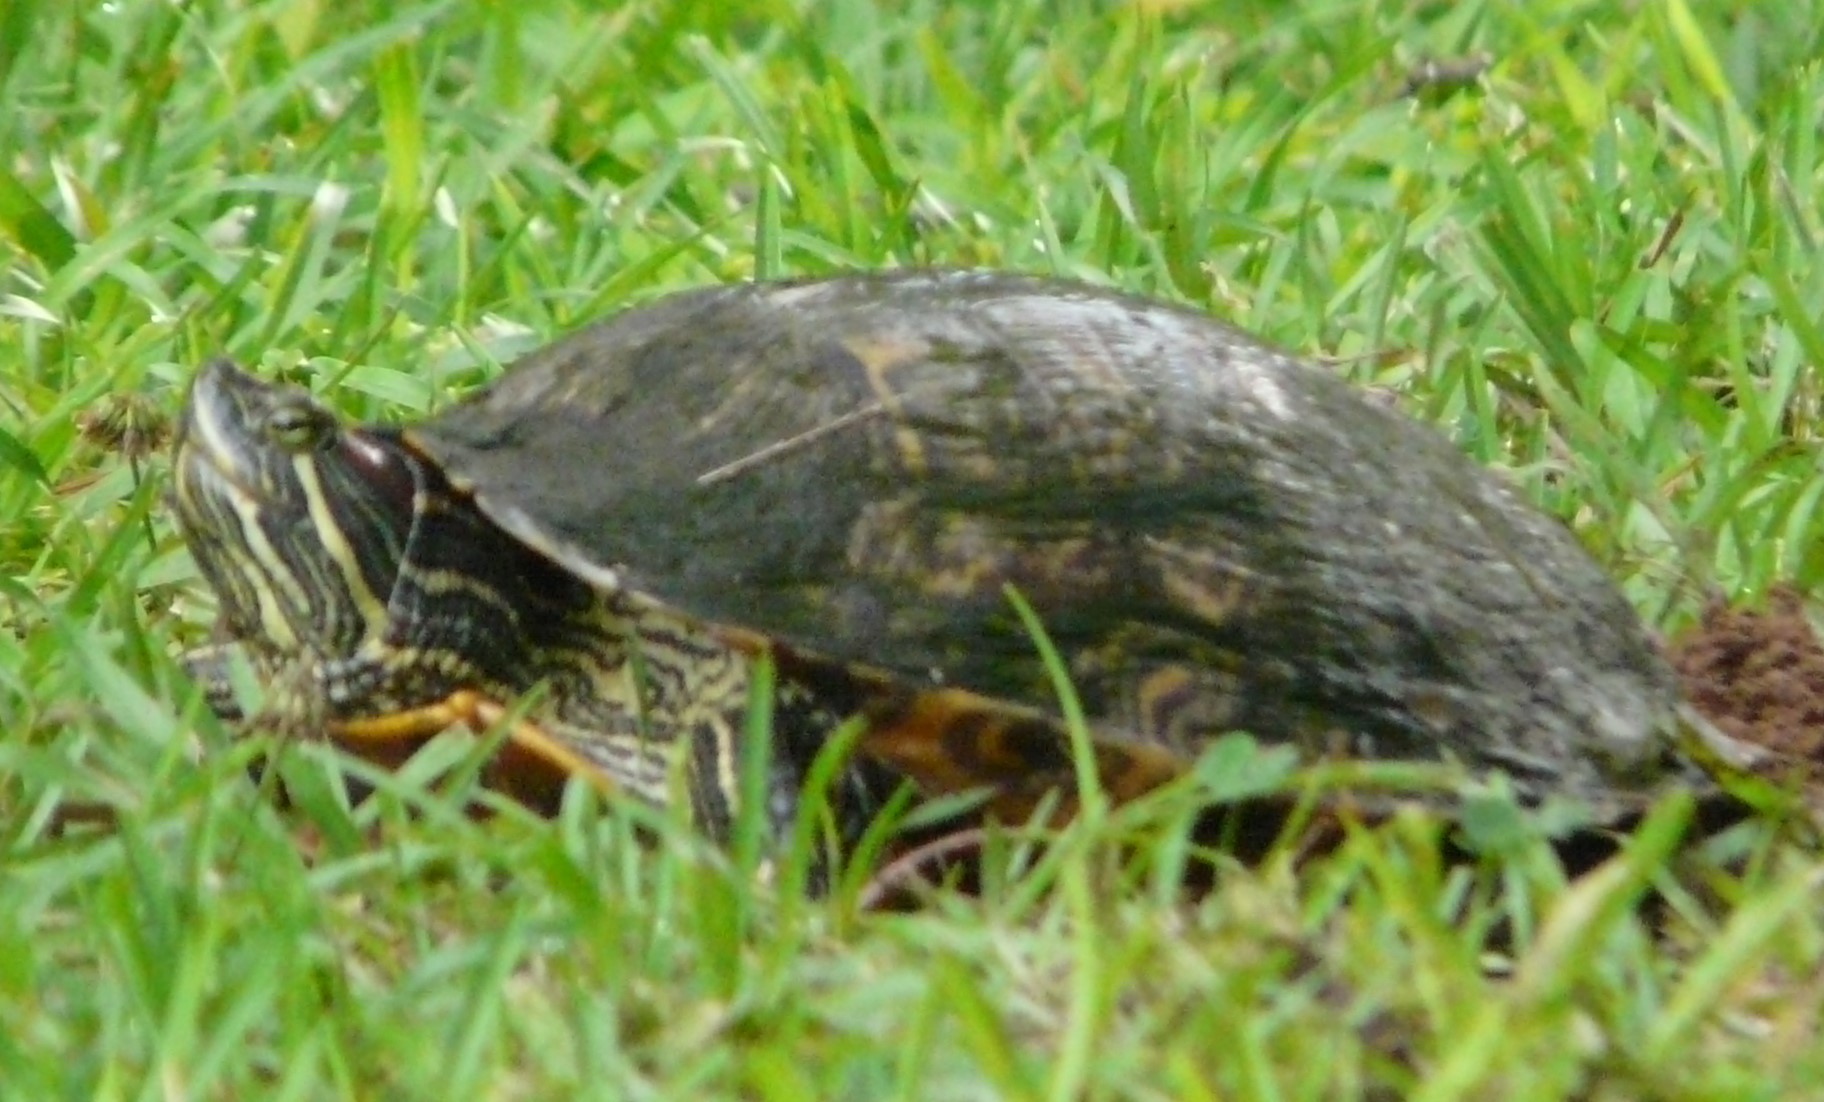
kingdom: Animalia
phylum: Chordata
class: Testudines
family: Emydidae
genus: Trachemys
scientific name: Trachemys scripta
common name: Slider
